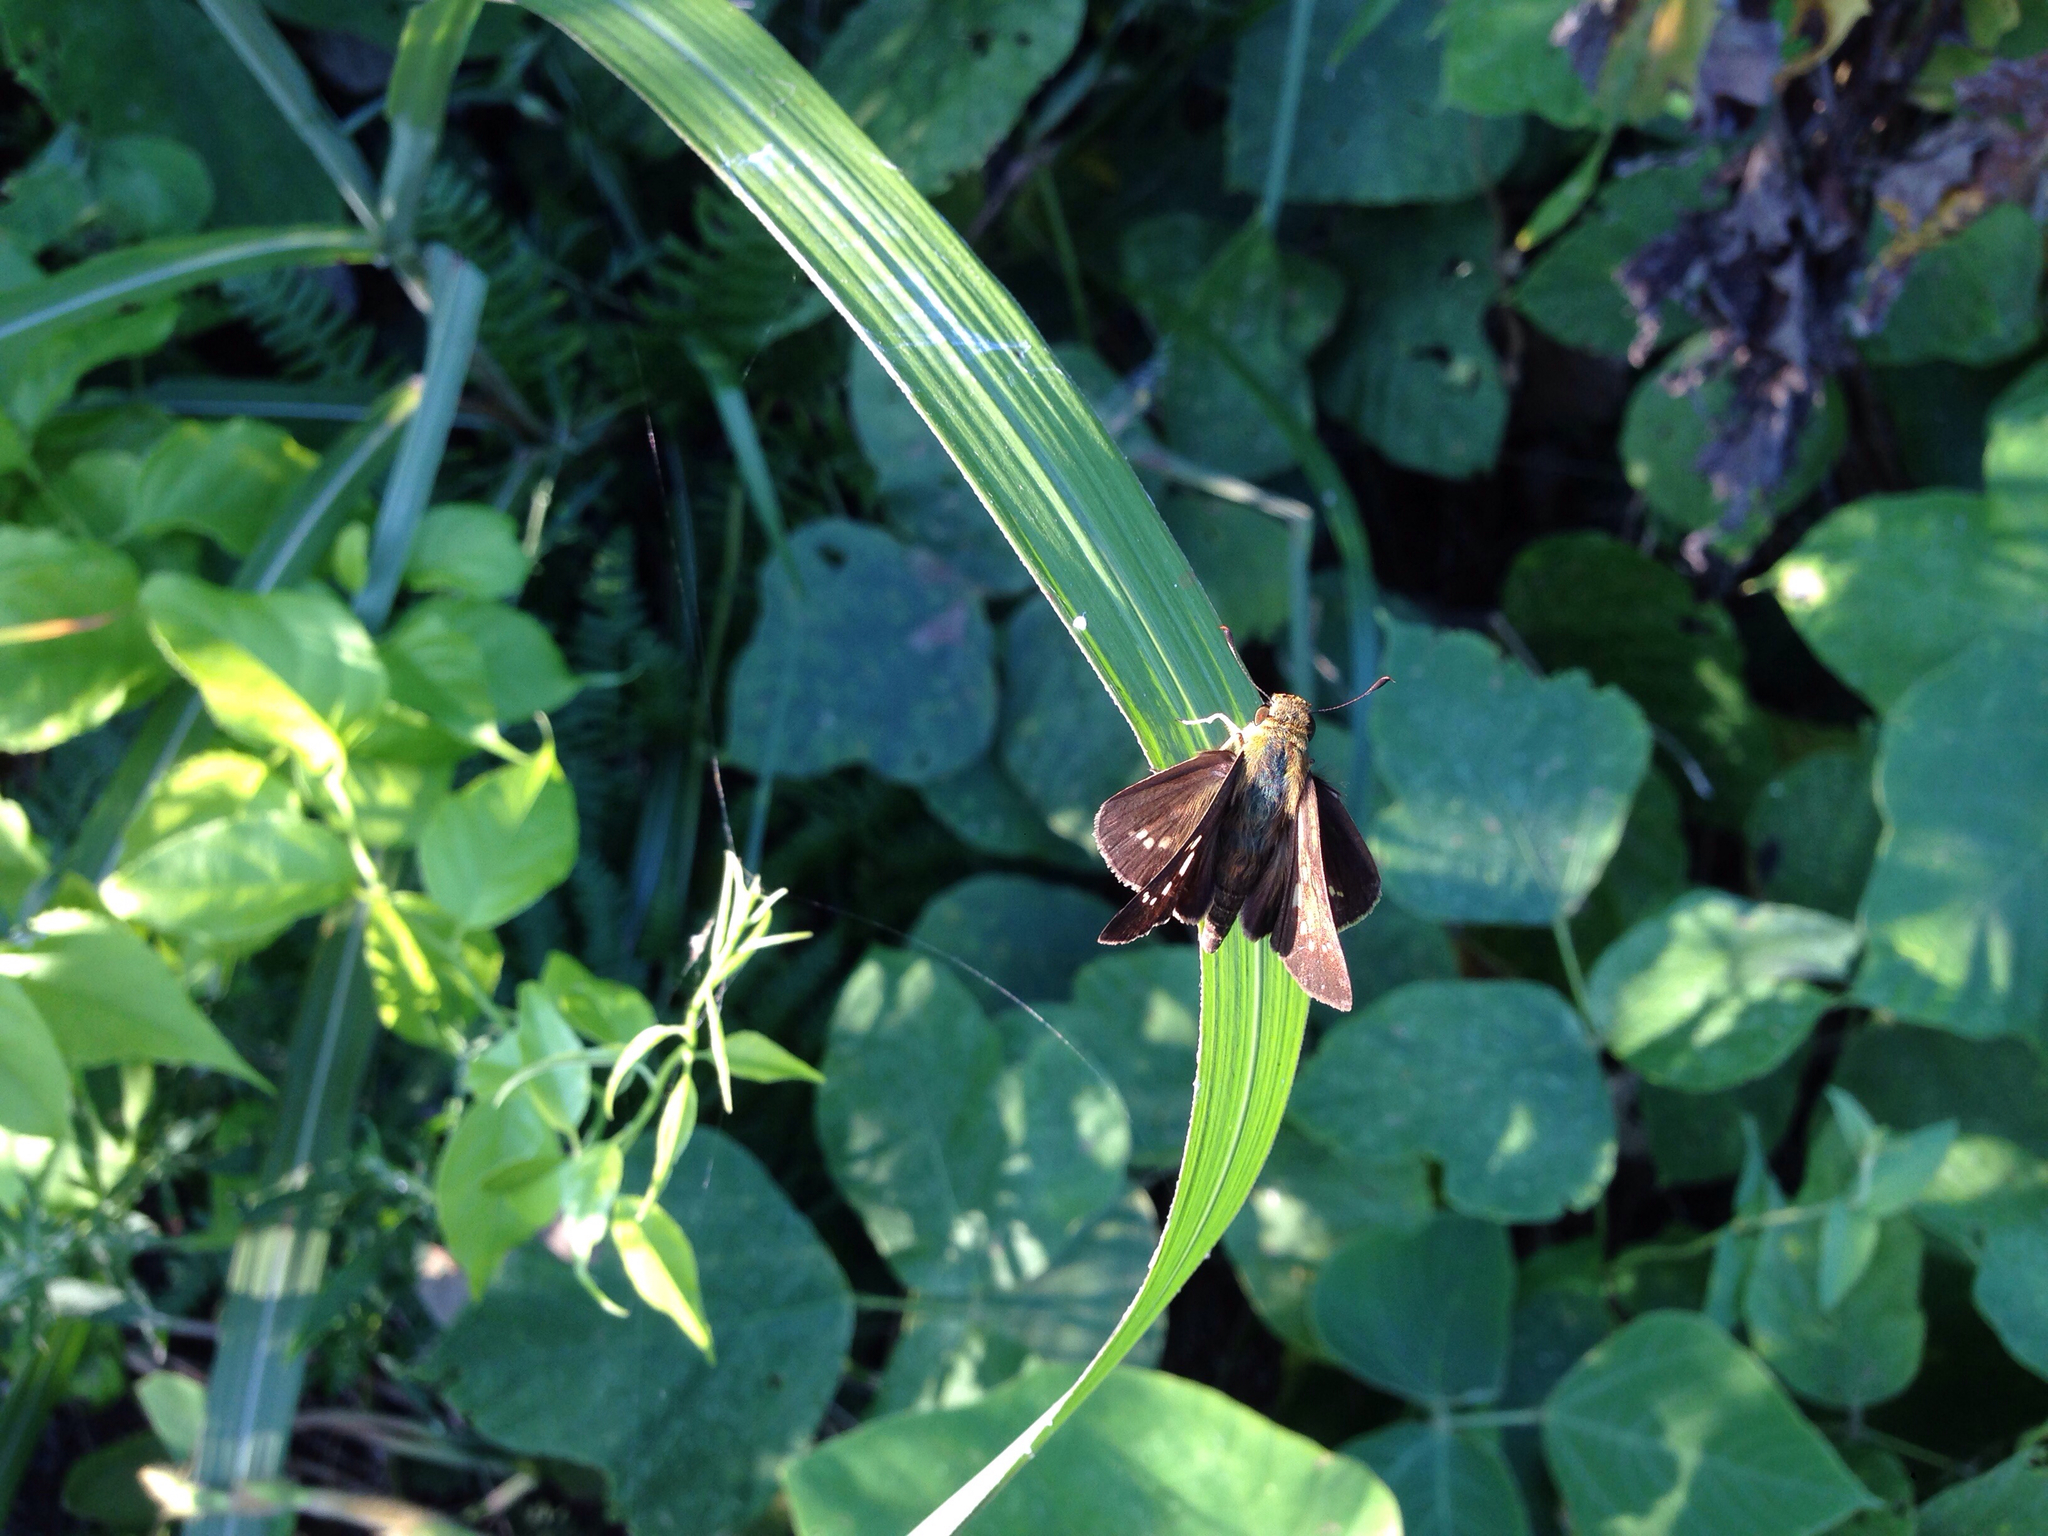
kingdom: Animalia
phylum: Arthropoda
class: Insecta
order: Lepidoptera
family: Hesperiidae
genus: Parnara
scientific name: Parnara guttatus
